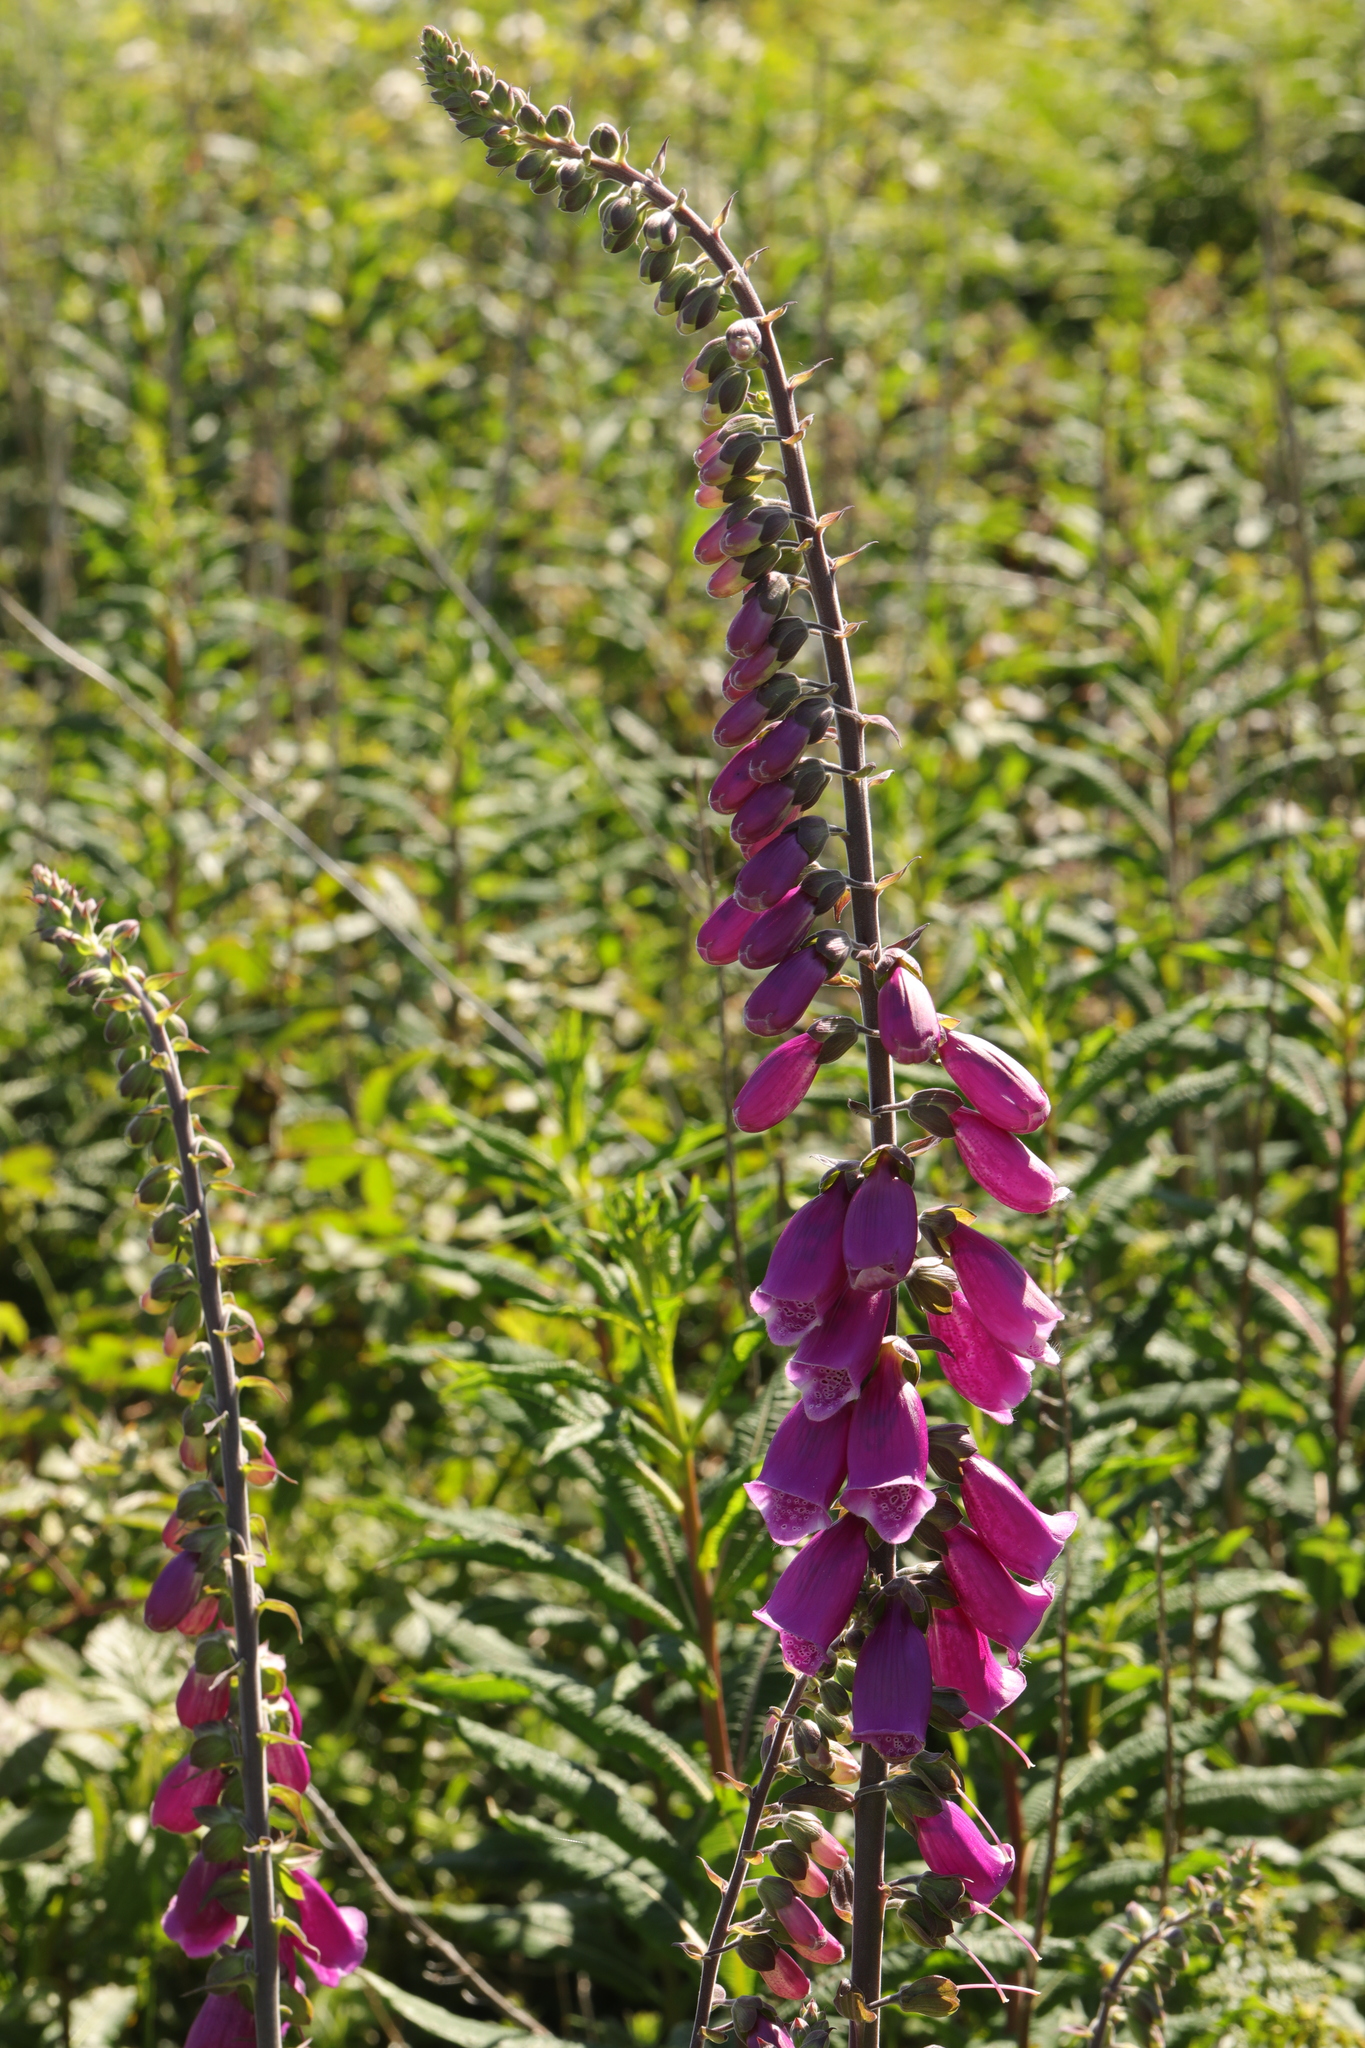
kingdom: Plantae
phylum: Tracheophyta
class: Magnoliopsida
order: Lamiales
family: Plantaginaceae
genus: Digitalis
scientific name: Digitalis purpurea
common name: Foxglove
